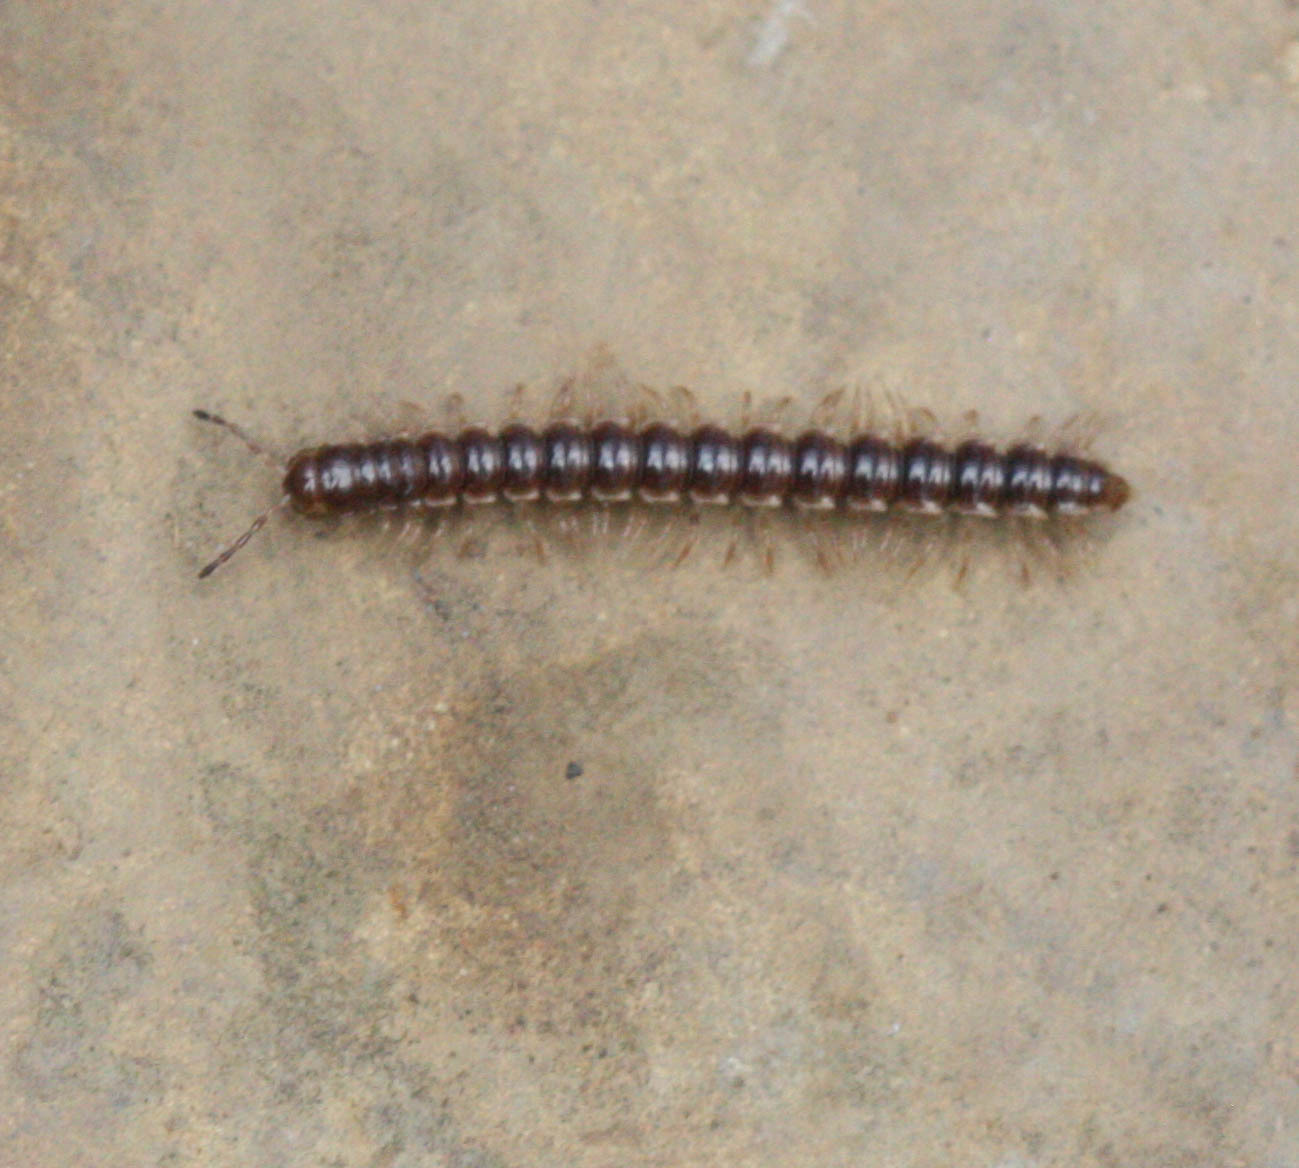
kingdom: Animalia
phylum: Arthropoda
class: Diplopoda
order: Polydesmida
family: Paradoxosomatidae
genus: Oxidus
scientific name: Oxidus gracilis
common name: Greenhouse millipede
